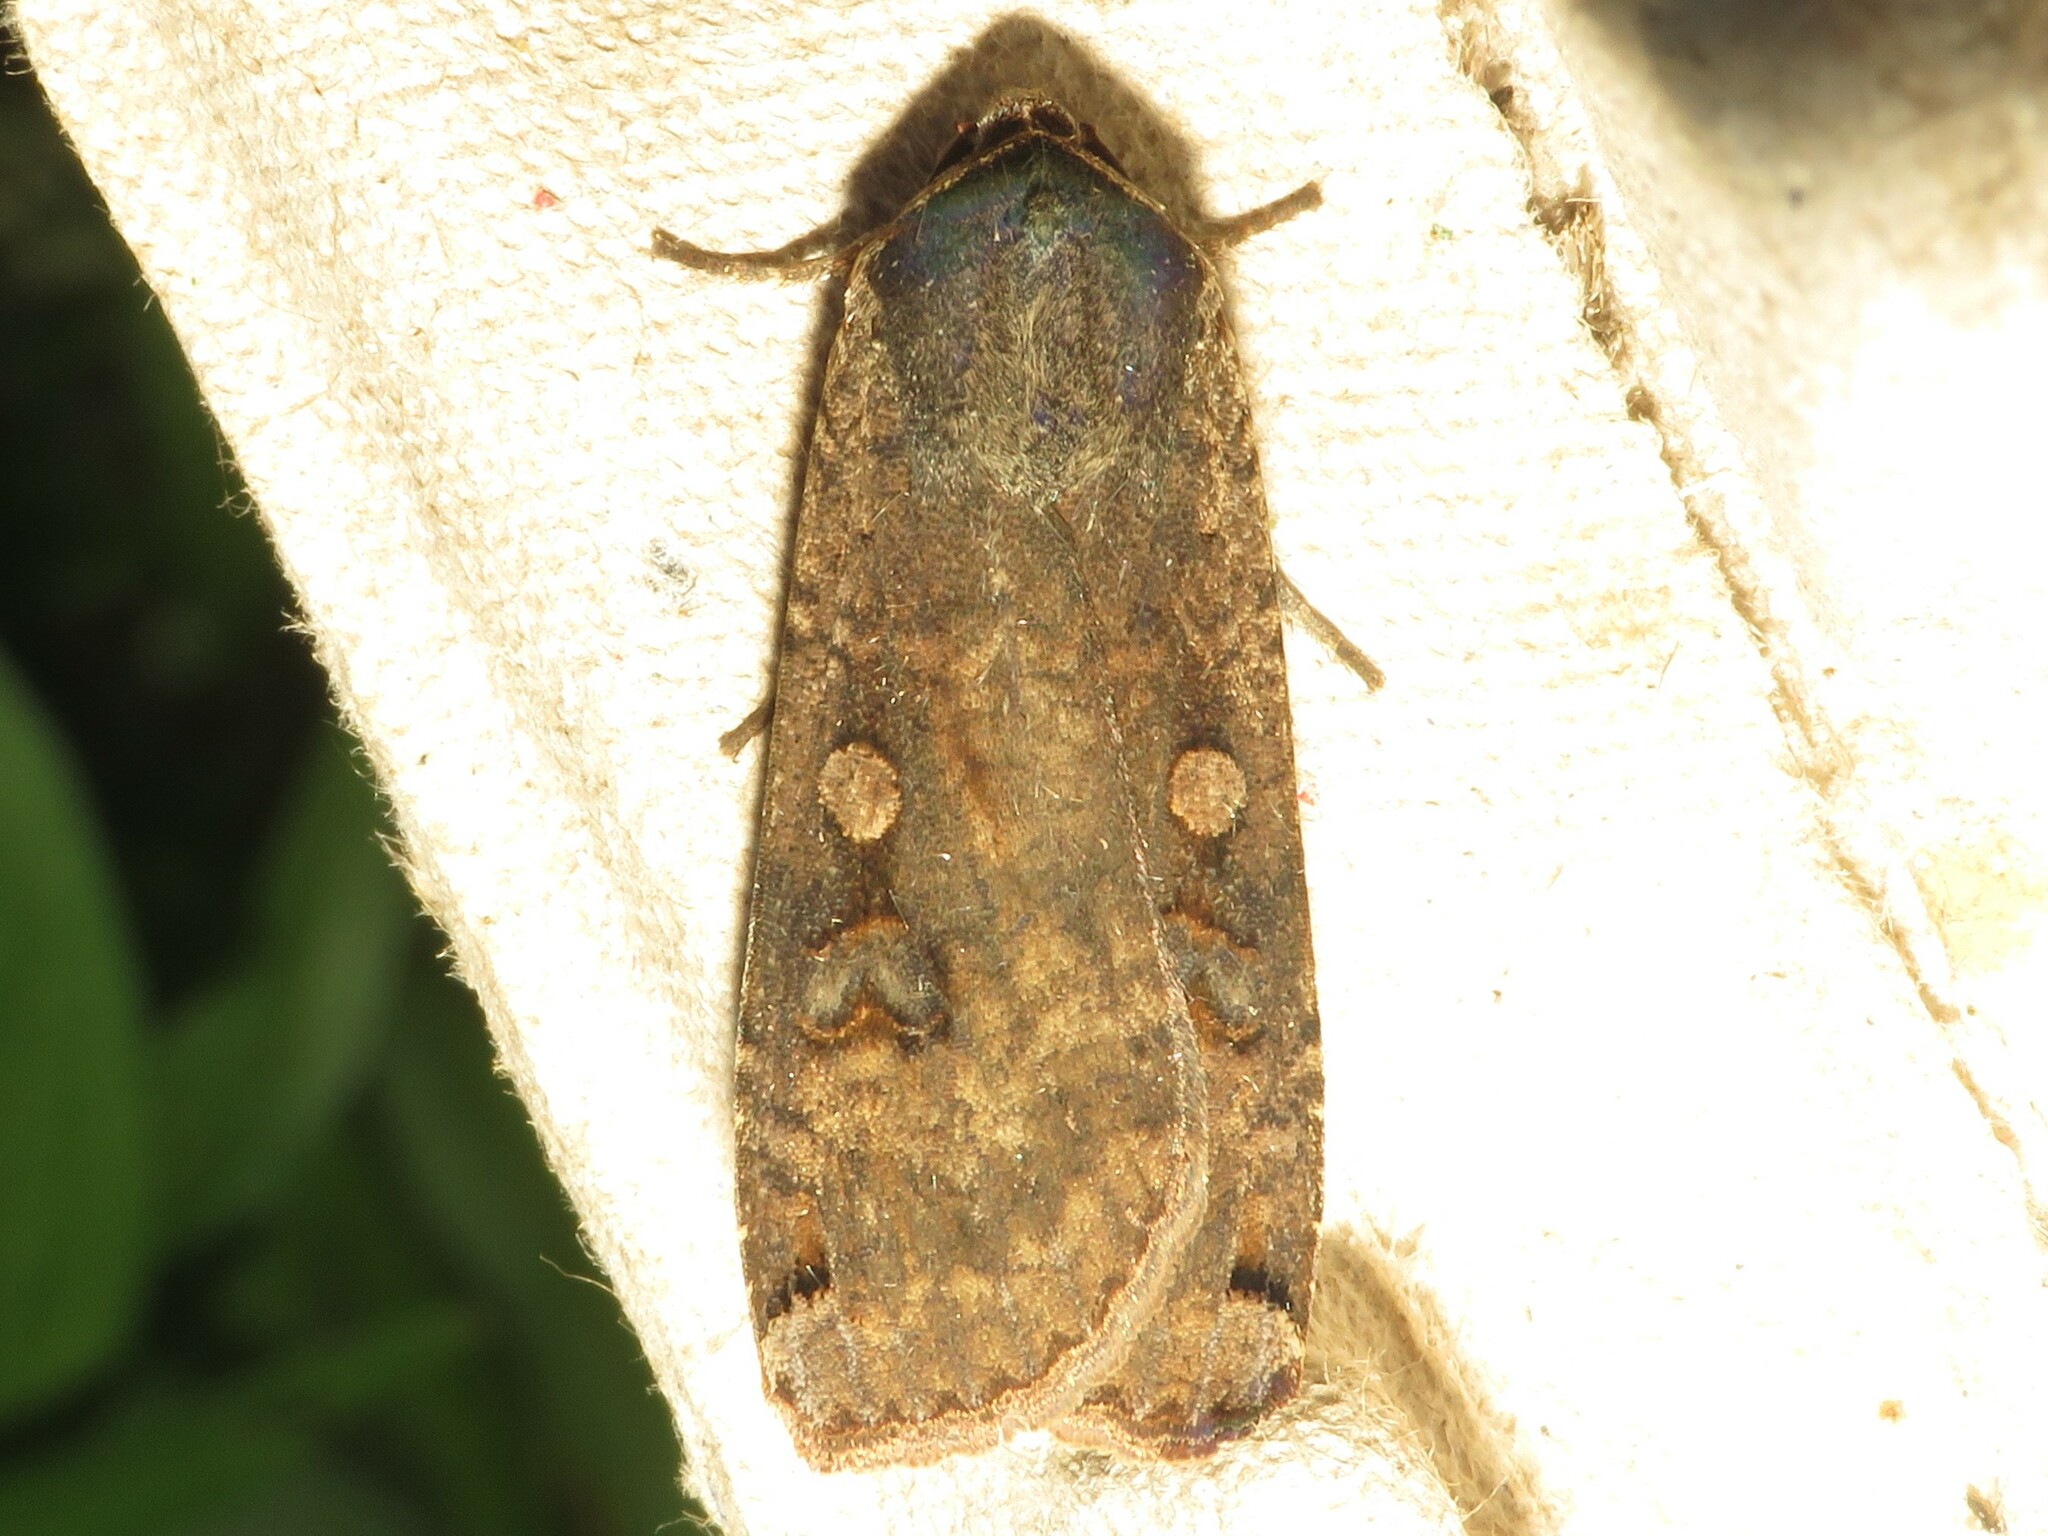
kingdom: Animalia
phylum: Arthropoda
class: Insecta
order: Lepidoptera
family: Noctuidae
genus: Noctua
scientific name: Noctua pronuba
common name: Large yellow underwing
